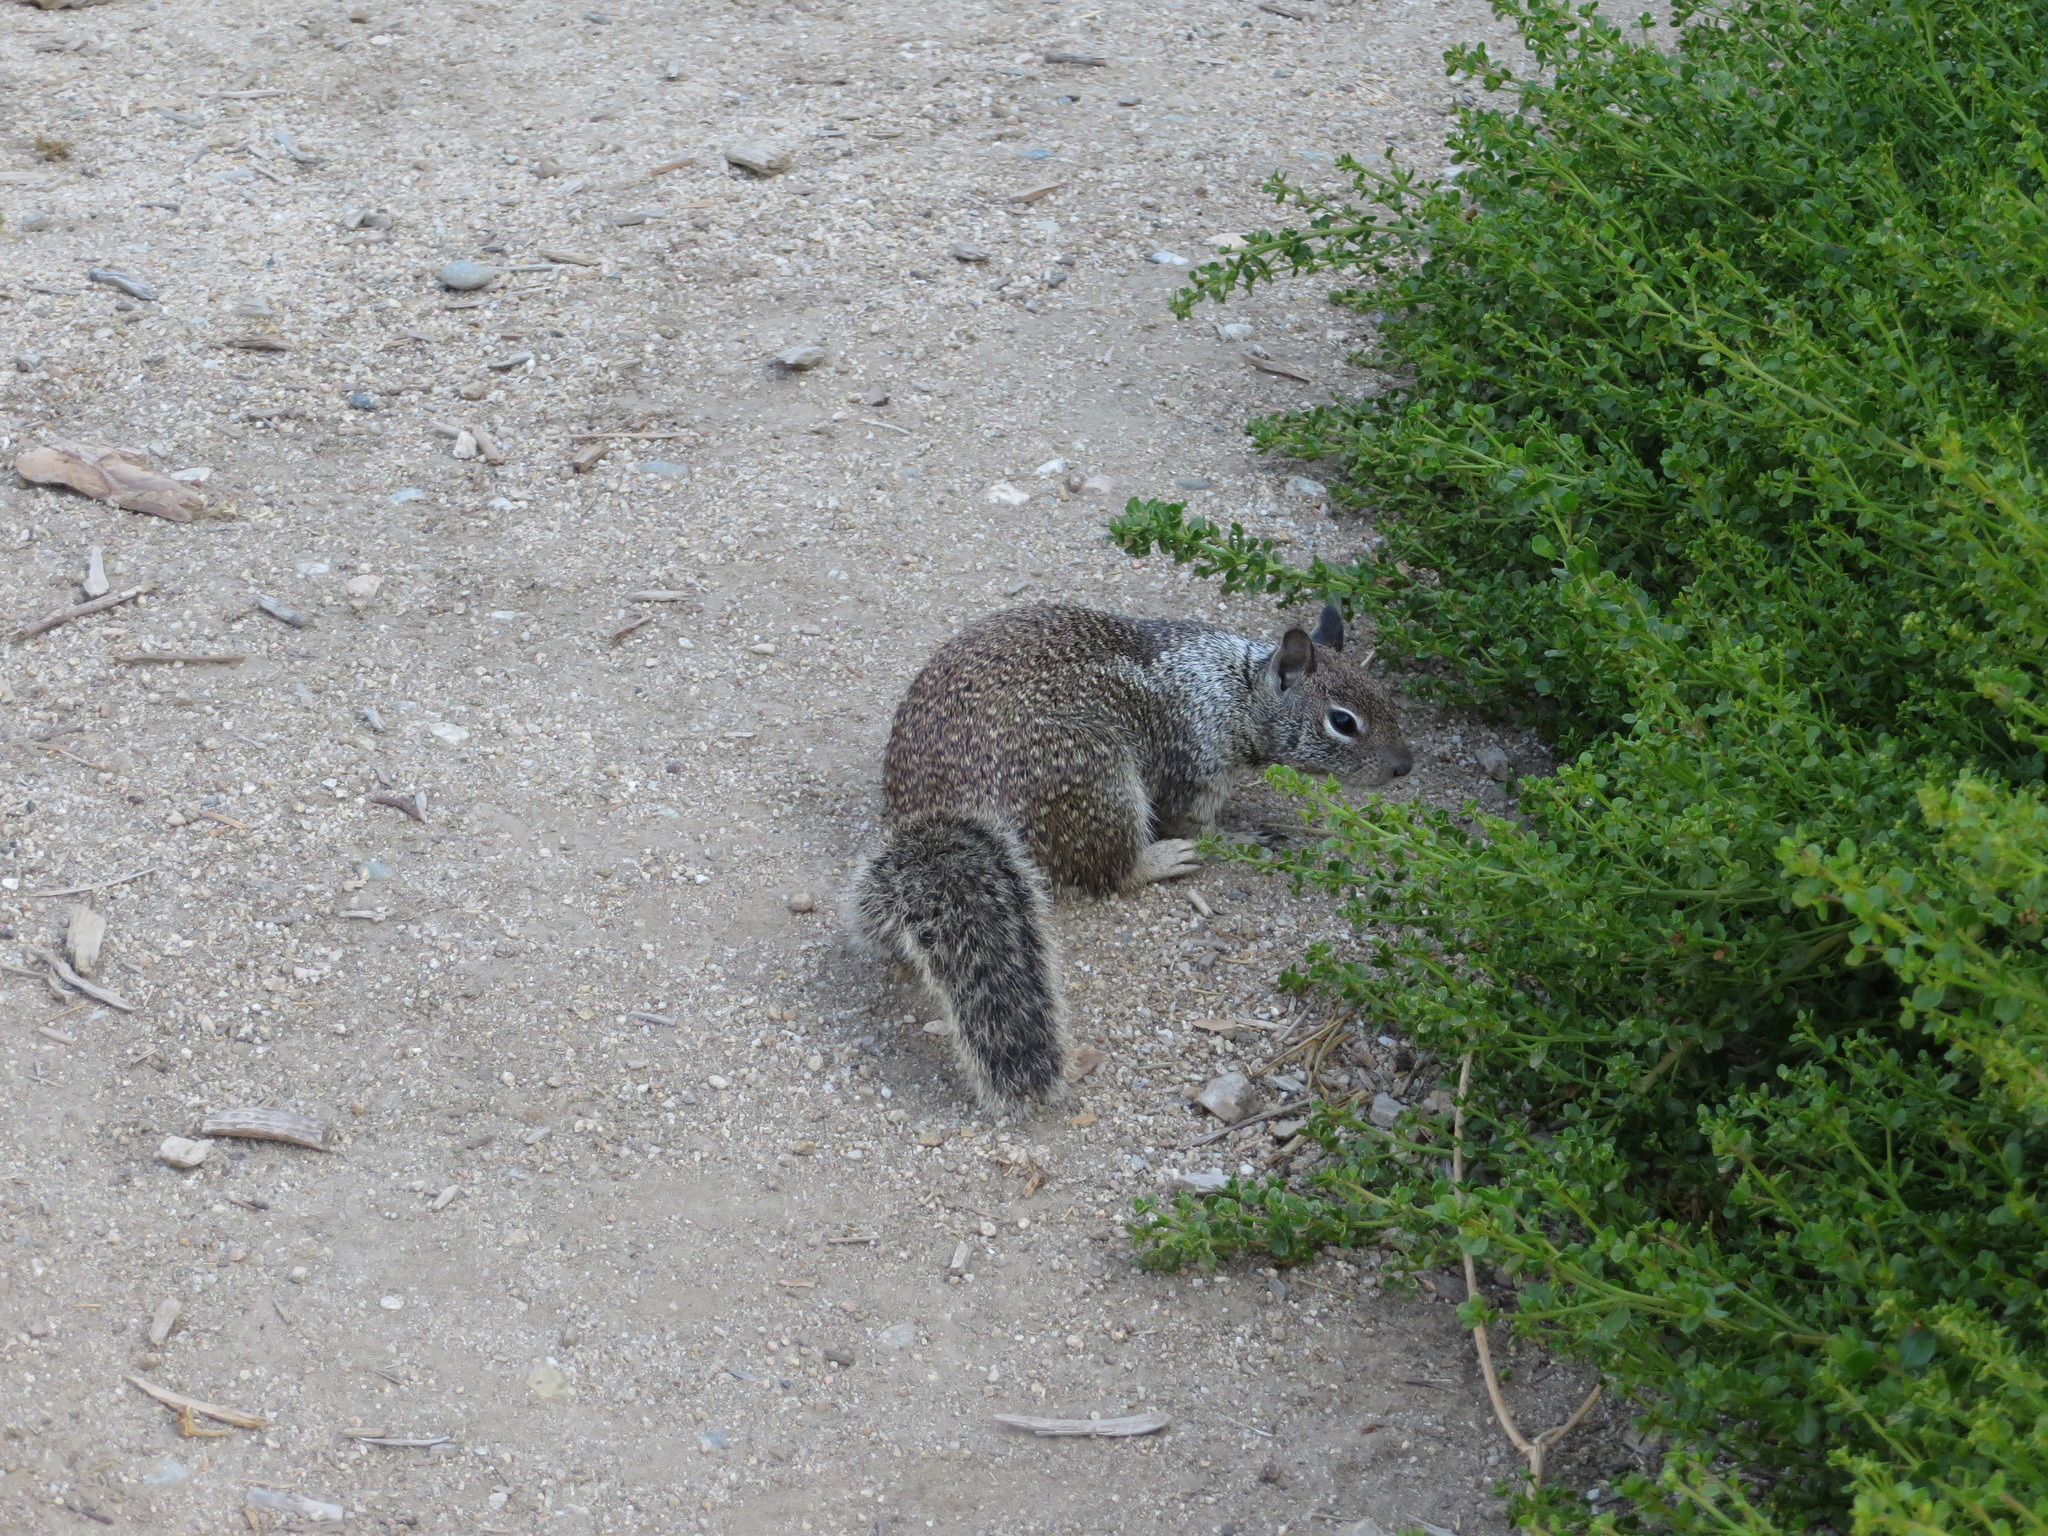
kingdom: Animalia
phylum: Chordata
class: Mammalia
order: Rodentia
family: Sciuridae
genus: Otospermophilus
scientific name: Otospermophilus beecheyi
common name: California ground squirrel
